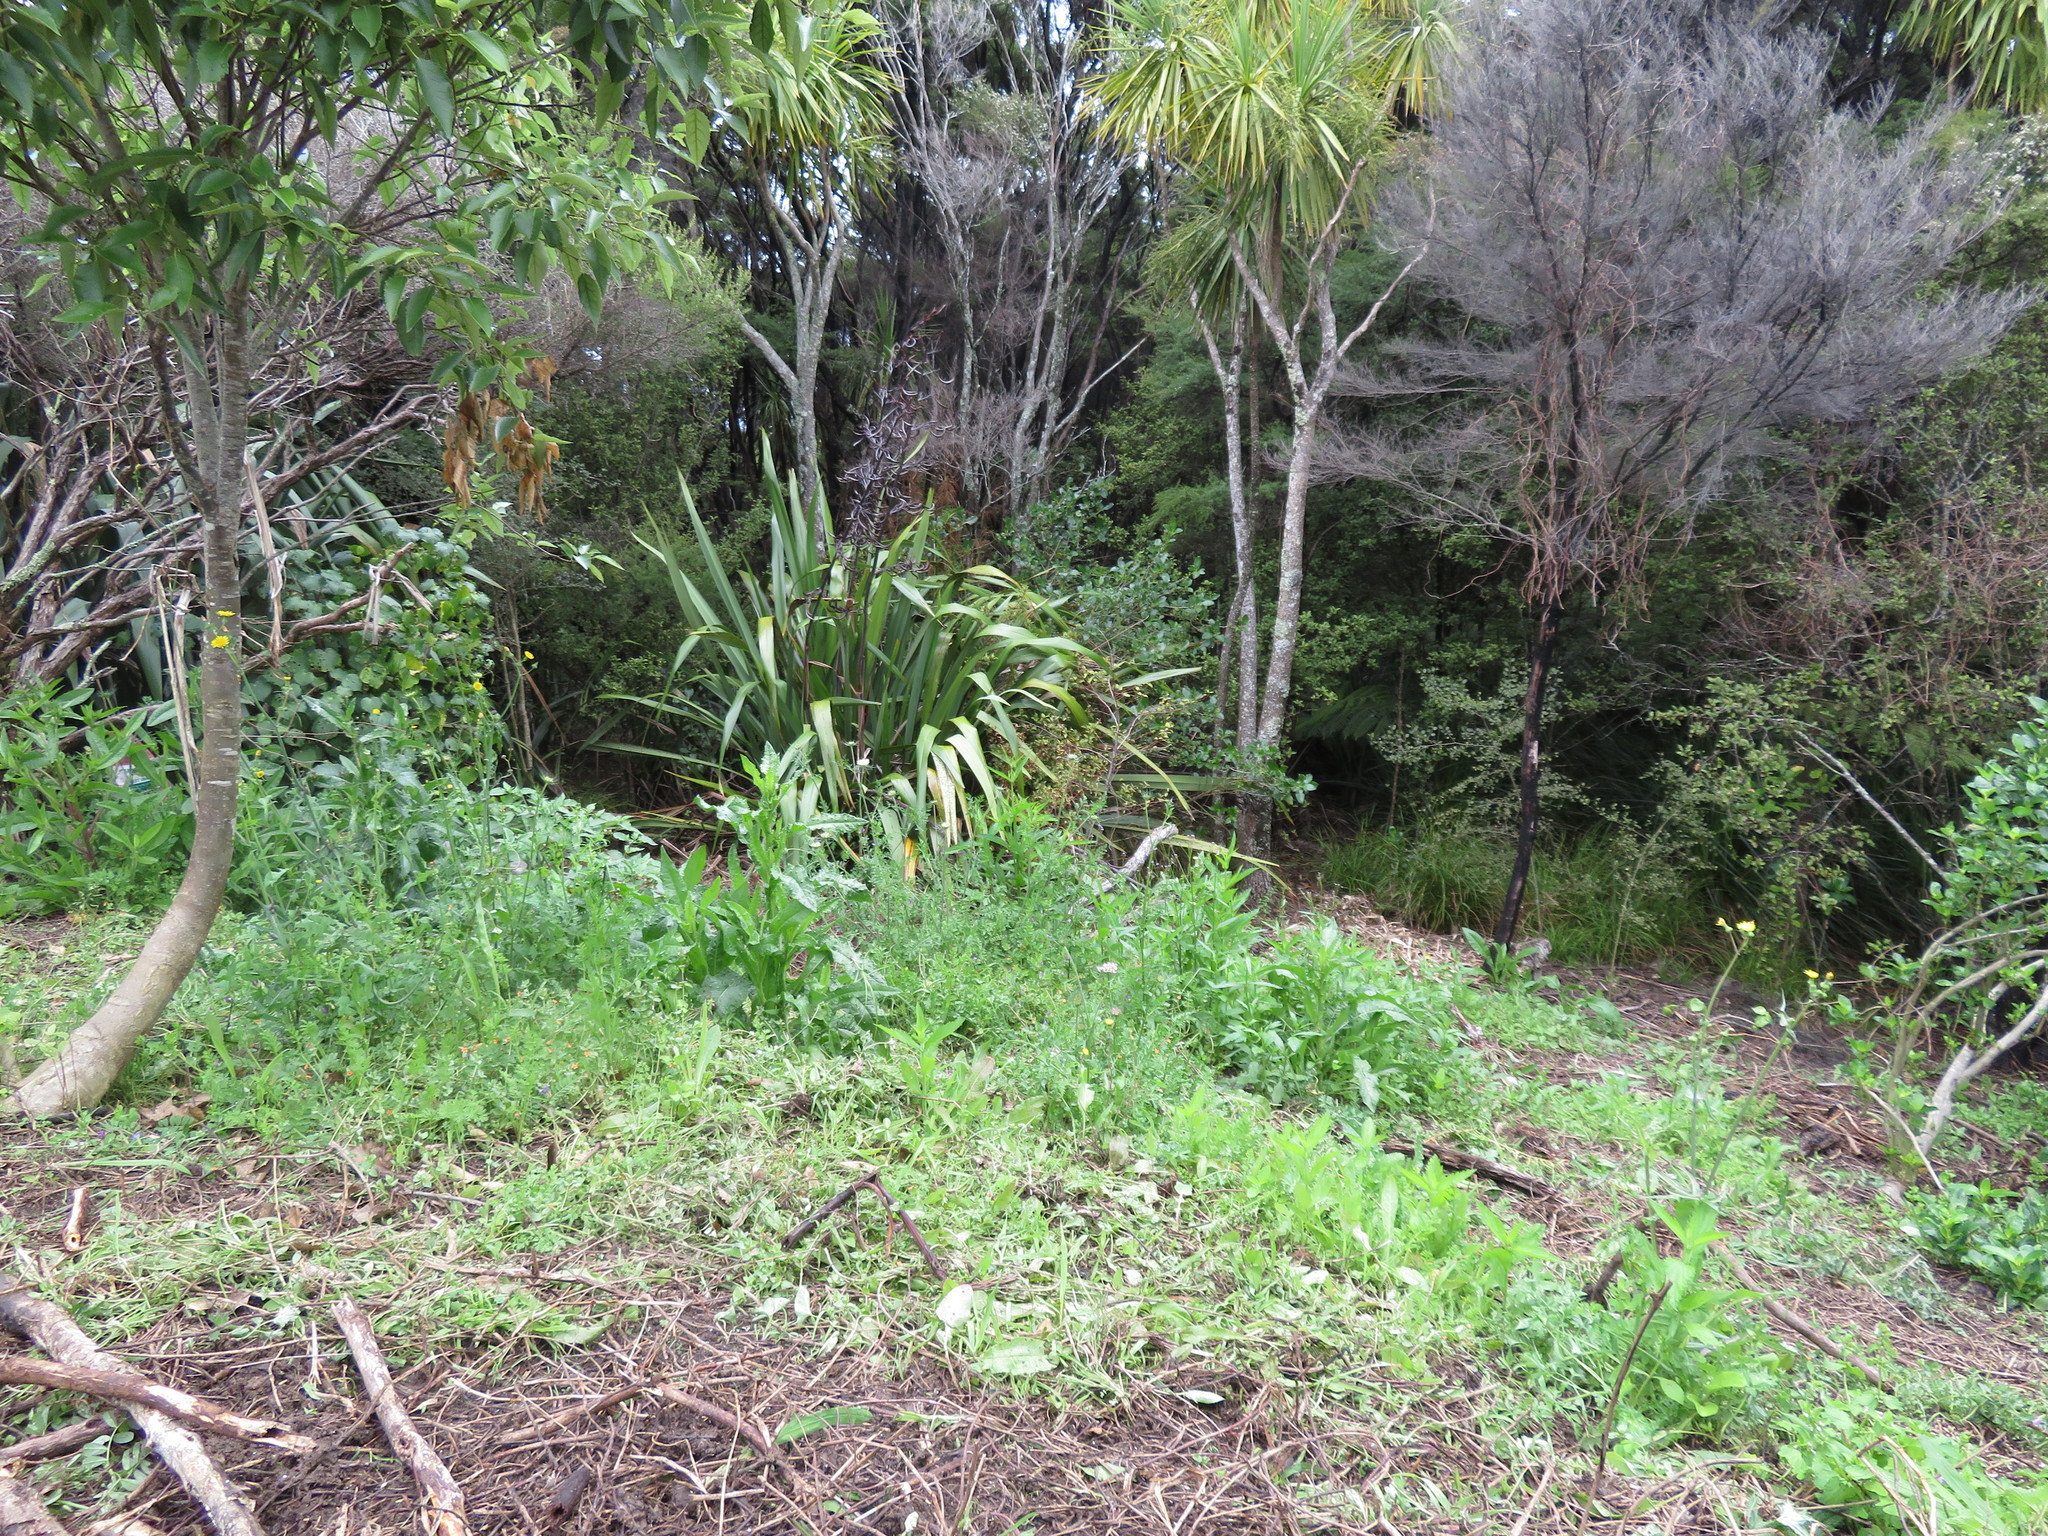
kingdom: Plantae
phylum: Tracheophyta
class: Magnoliopsida
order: Asterales
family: Asteraceae
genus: Sonchus
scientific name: Sonchus oleraceus
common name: Common sowthistle
